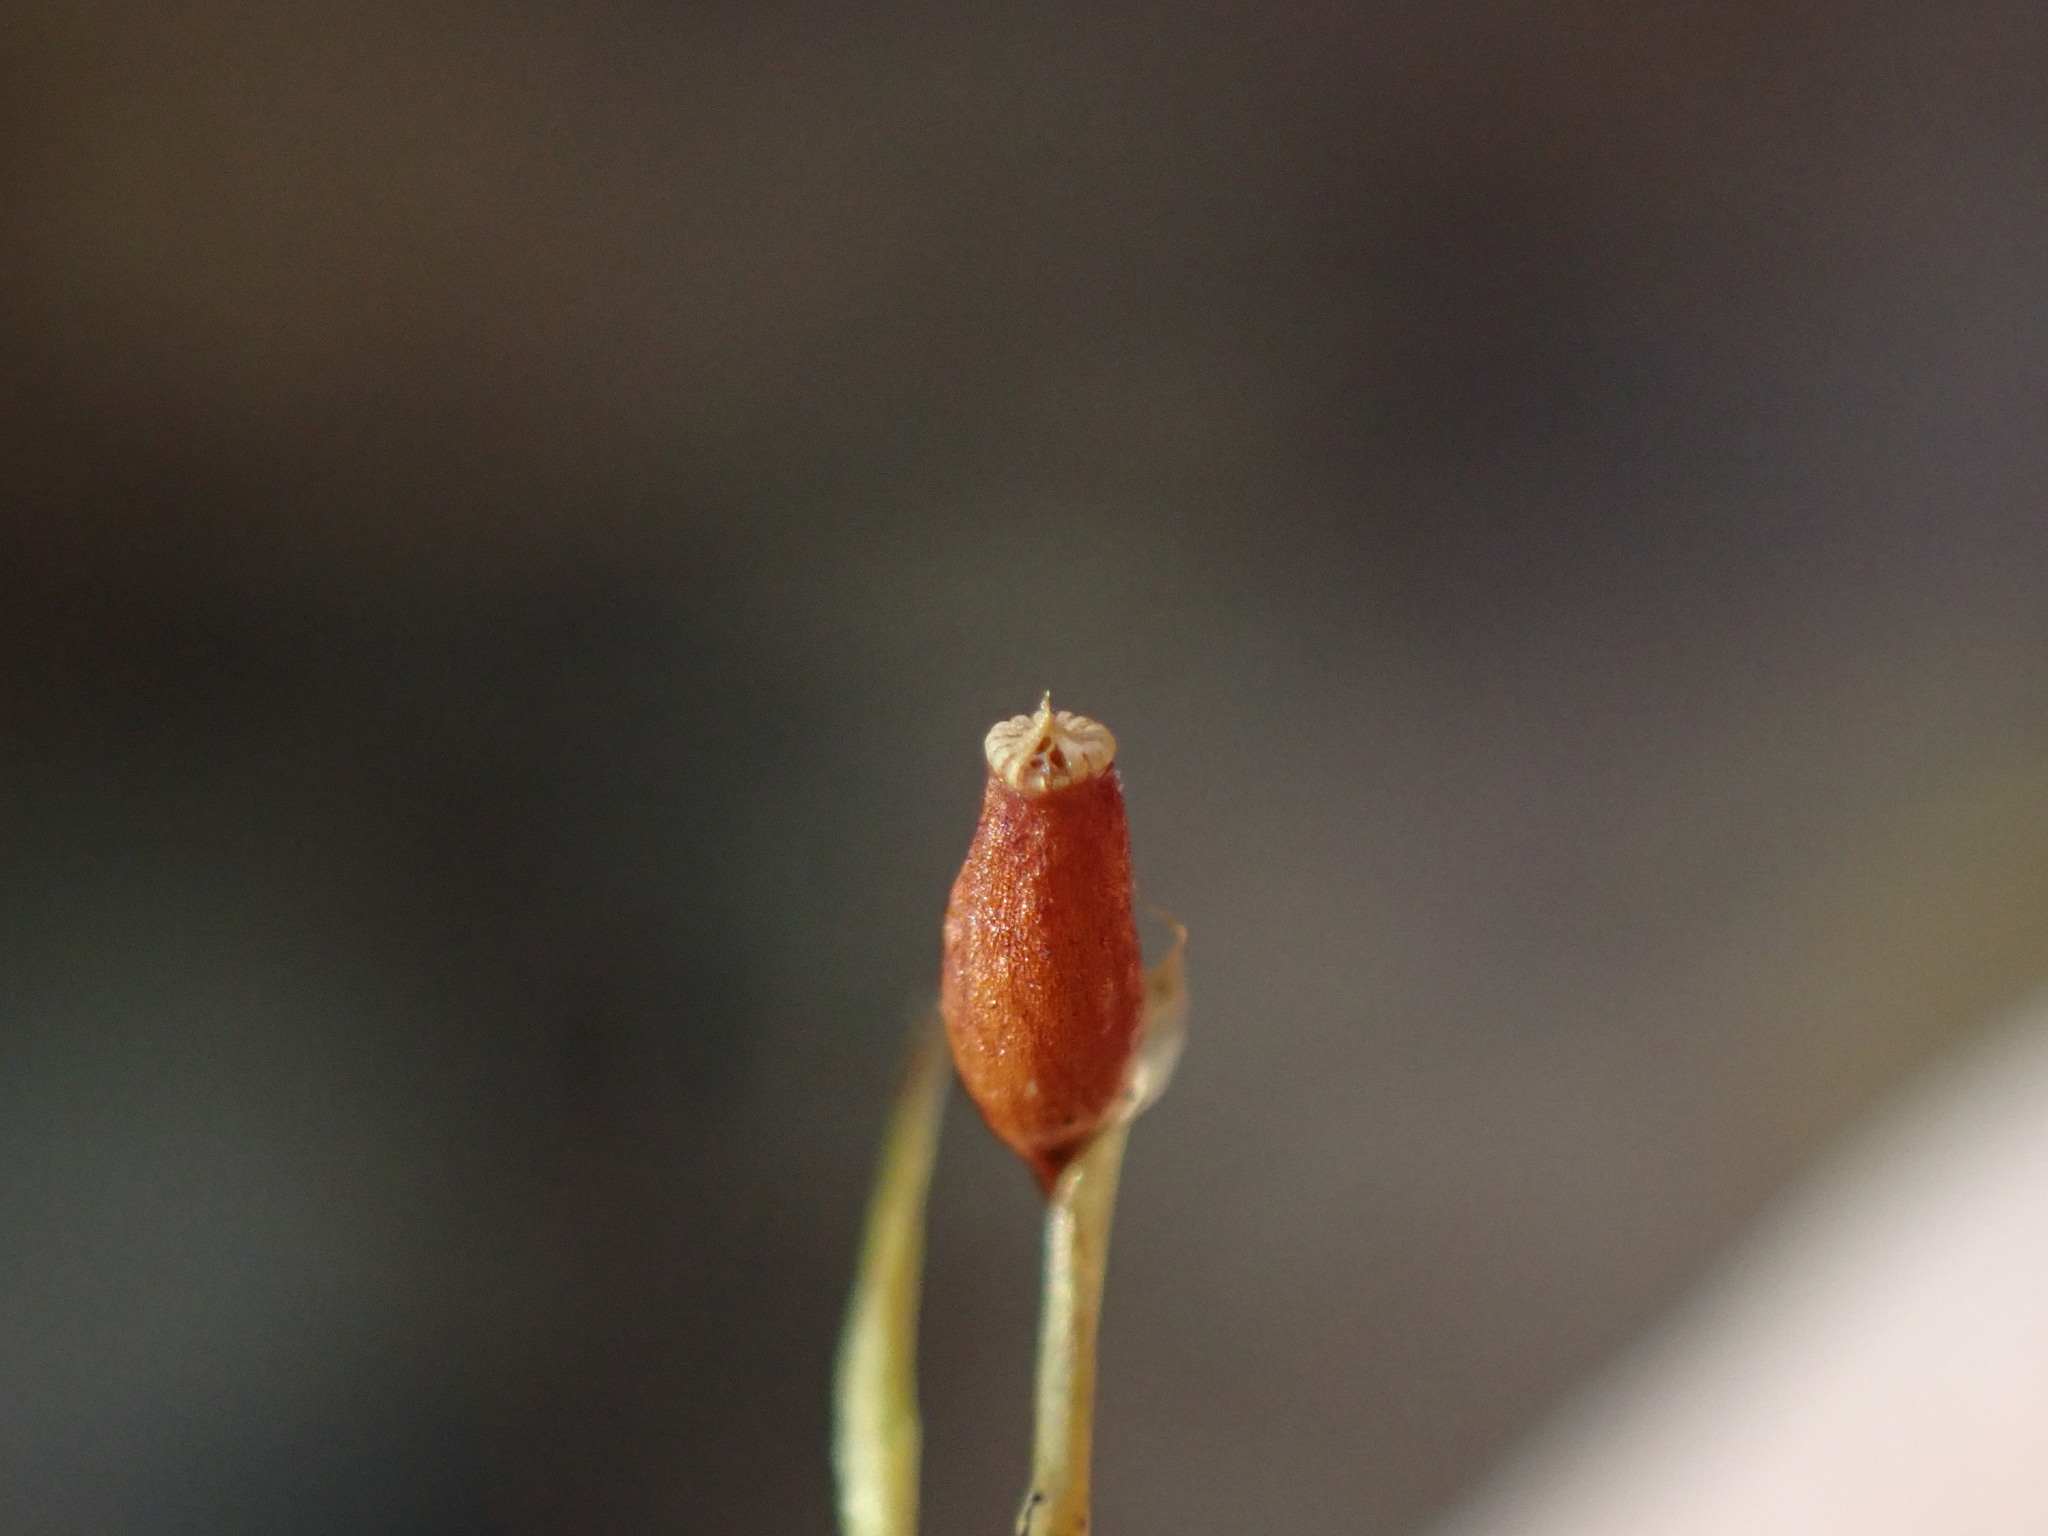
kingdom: Plantae
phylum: Bryophyta
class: Bryopsida
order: Hypnales
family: Neckeraceae
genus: Neckera
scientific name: Neckera douglasii
